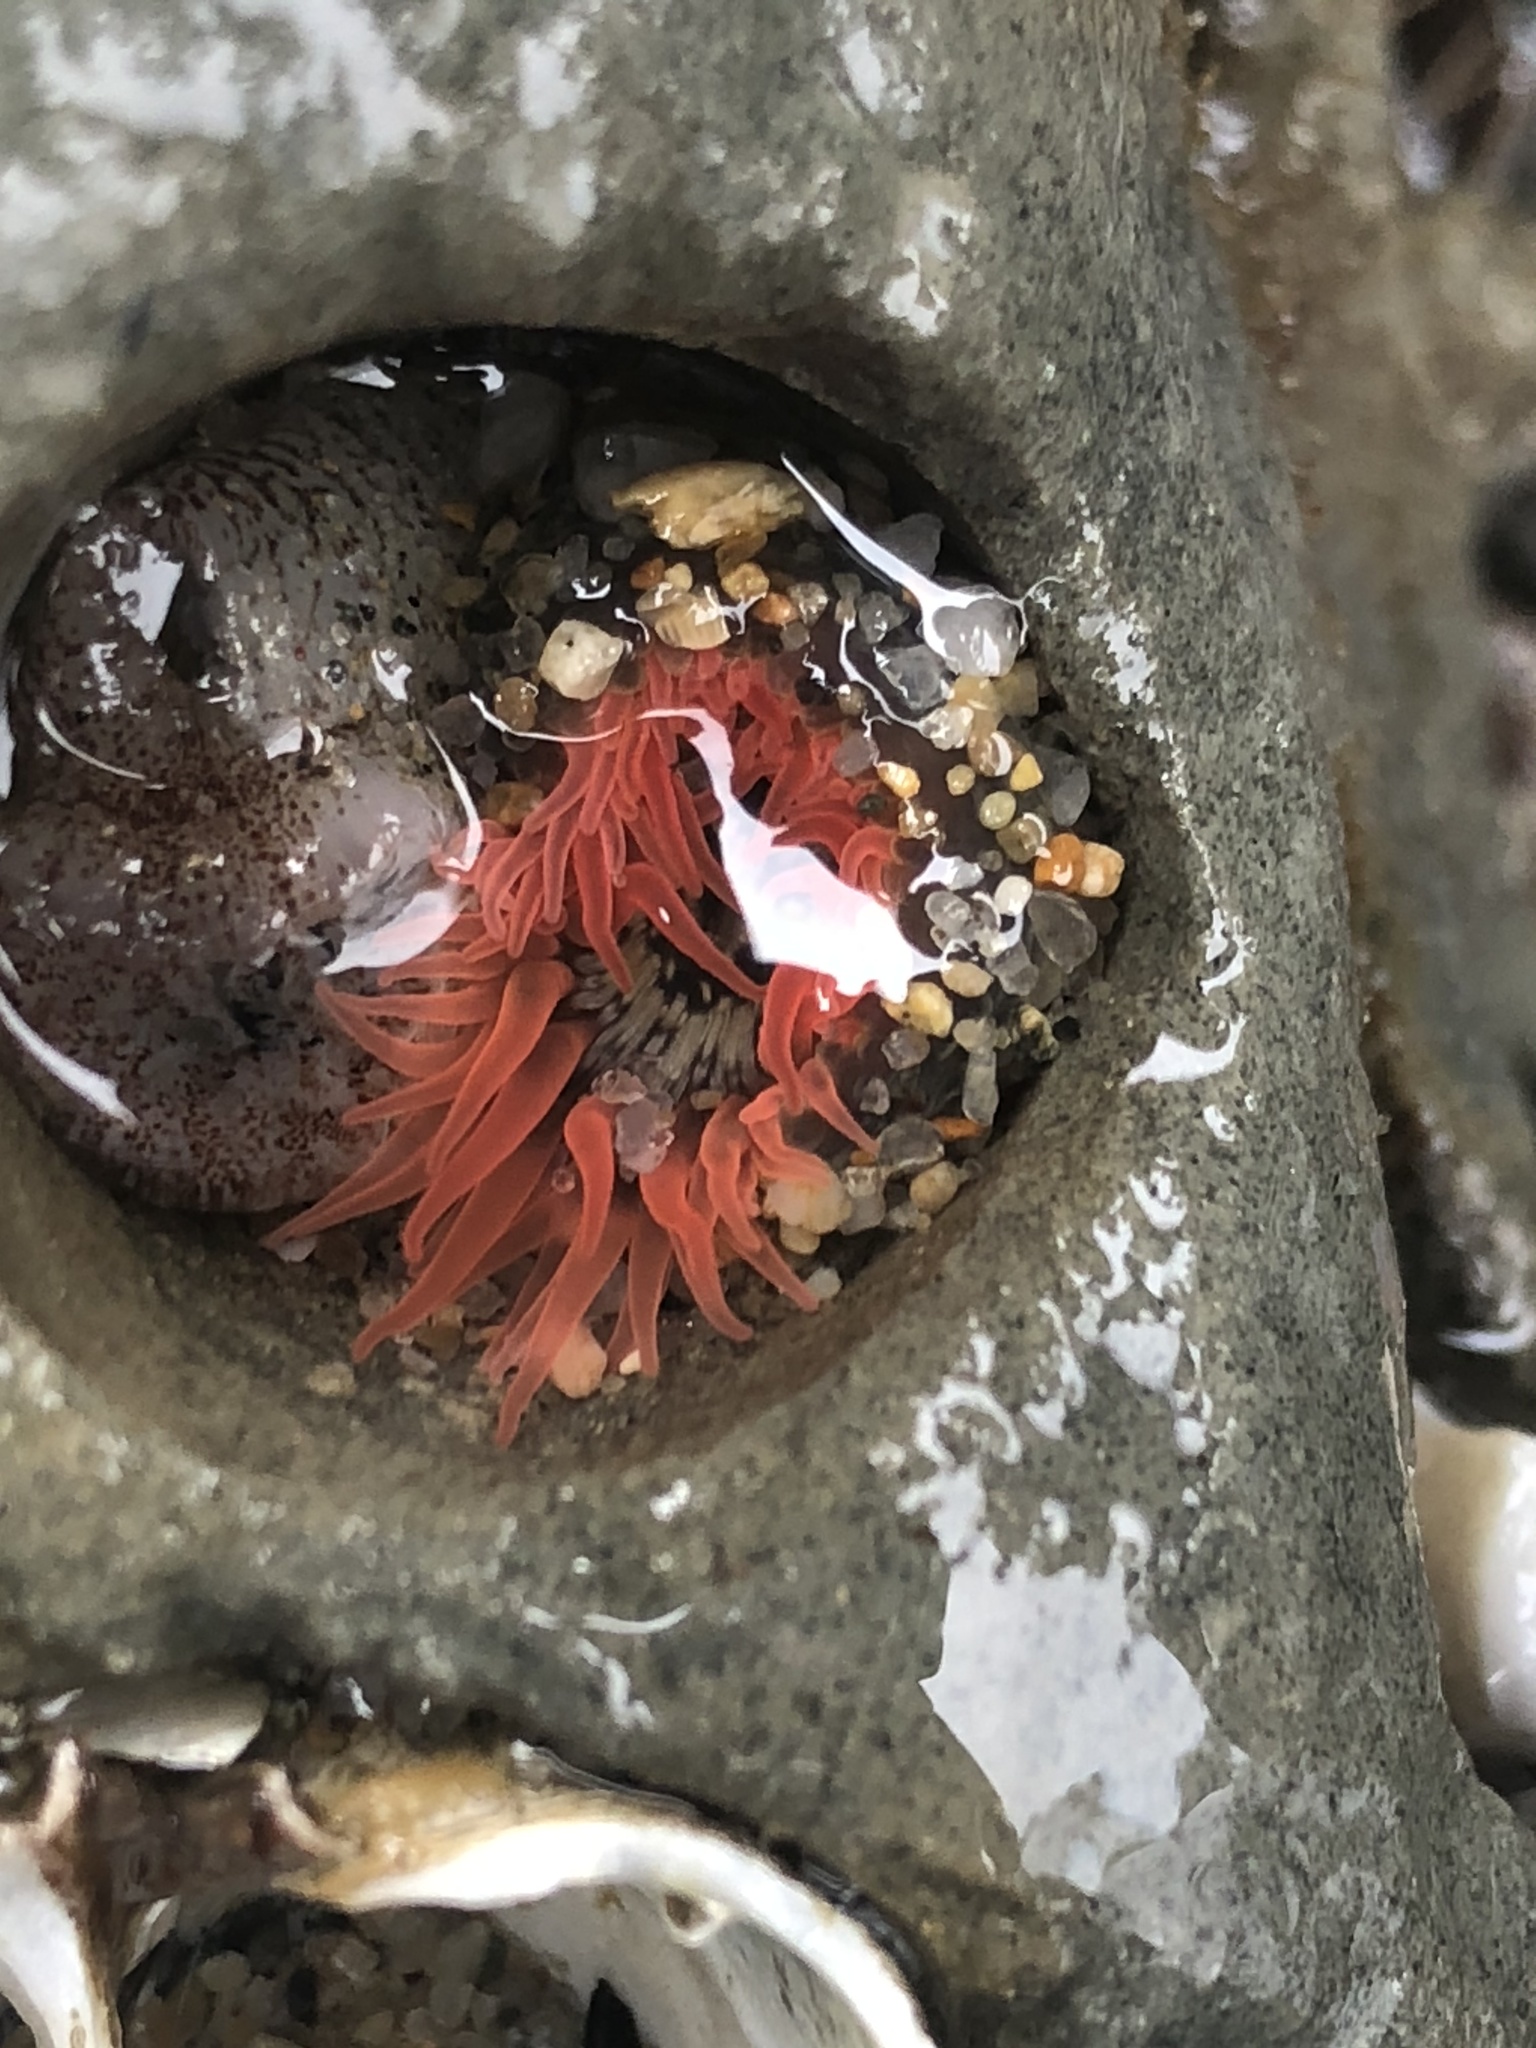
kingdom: Animalia
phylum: Cnidaria
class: Anthozoa
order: Actiniaria
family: Actiniidae
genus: Anthopleura
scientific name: Anthopleura artemisia
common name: Buried sea anemone
